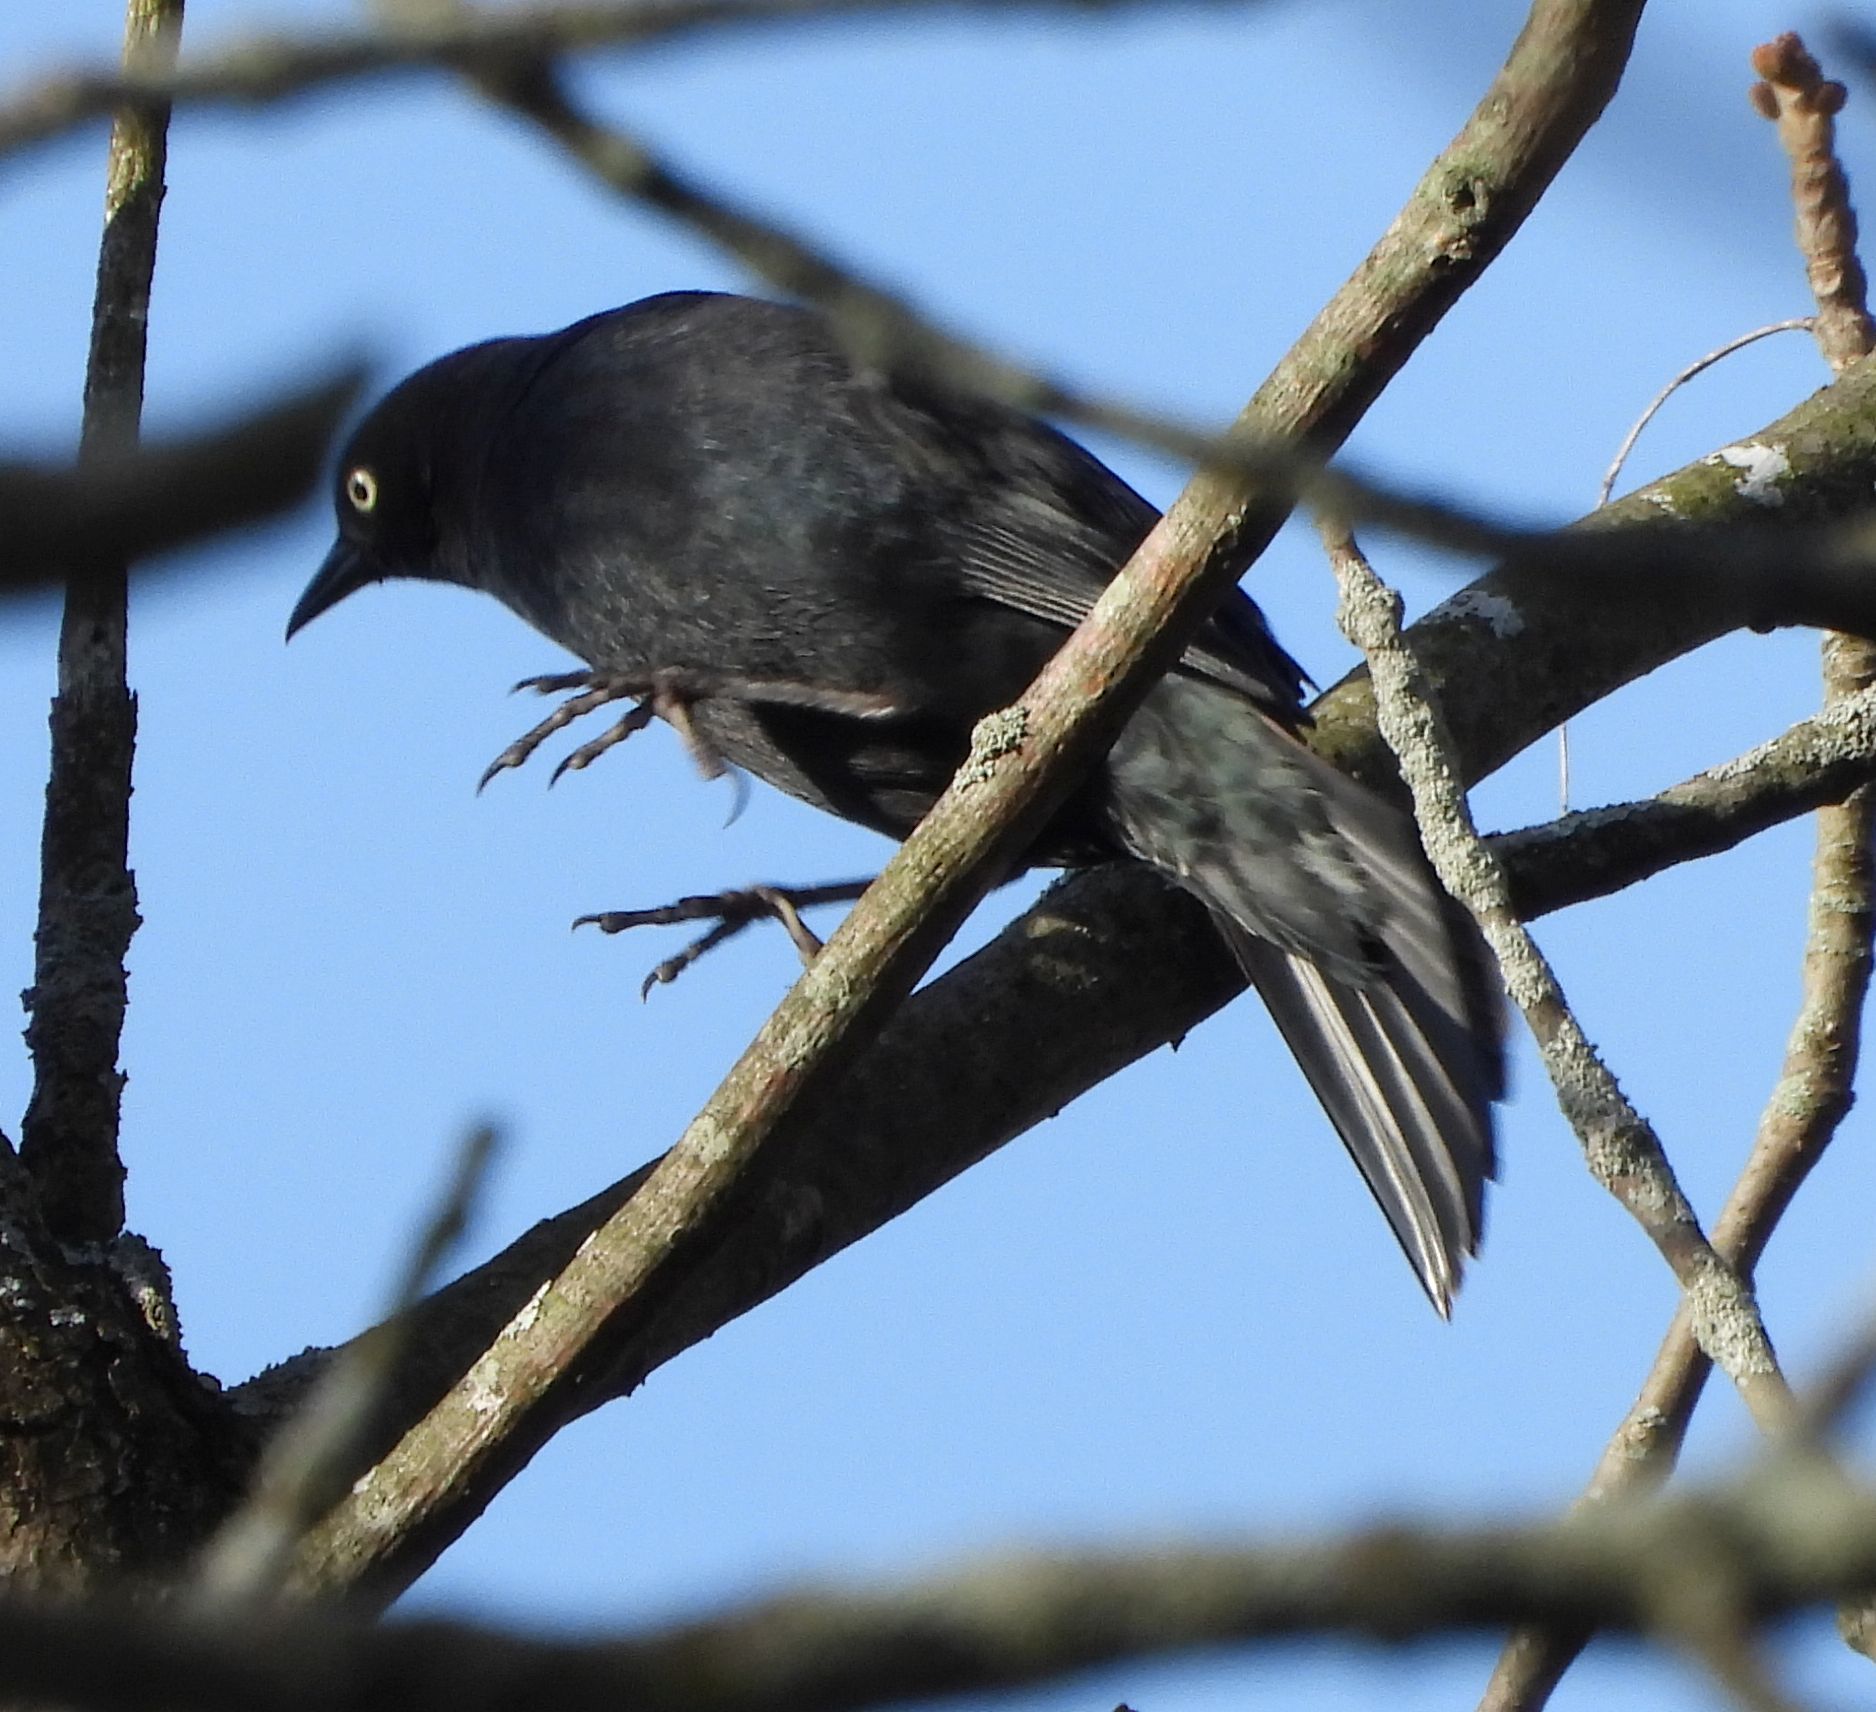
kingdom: Animalia
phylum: Chordata
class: Aves
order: Passeriformes
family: Icteridae
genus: Euphagus
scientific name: Euphagus carolinus
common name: Rusty blackbird
